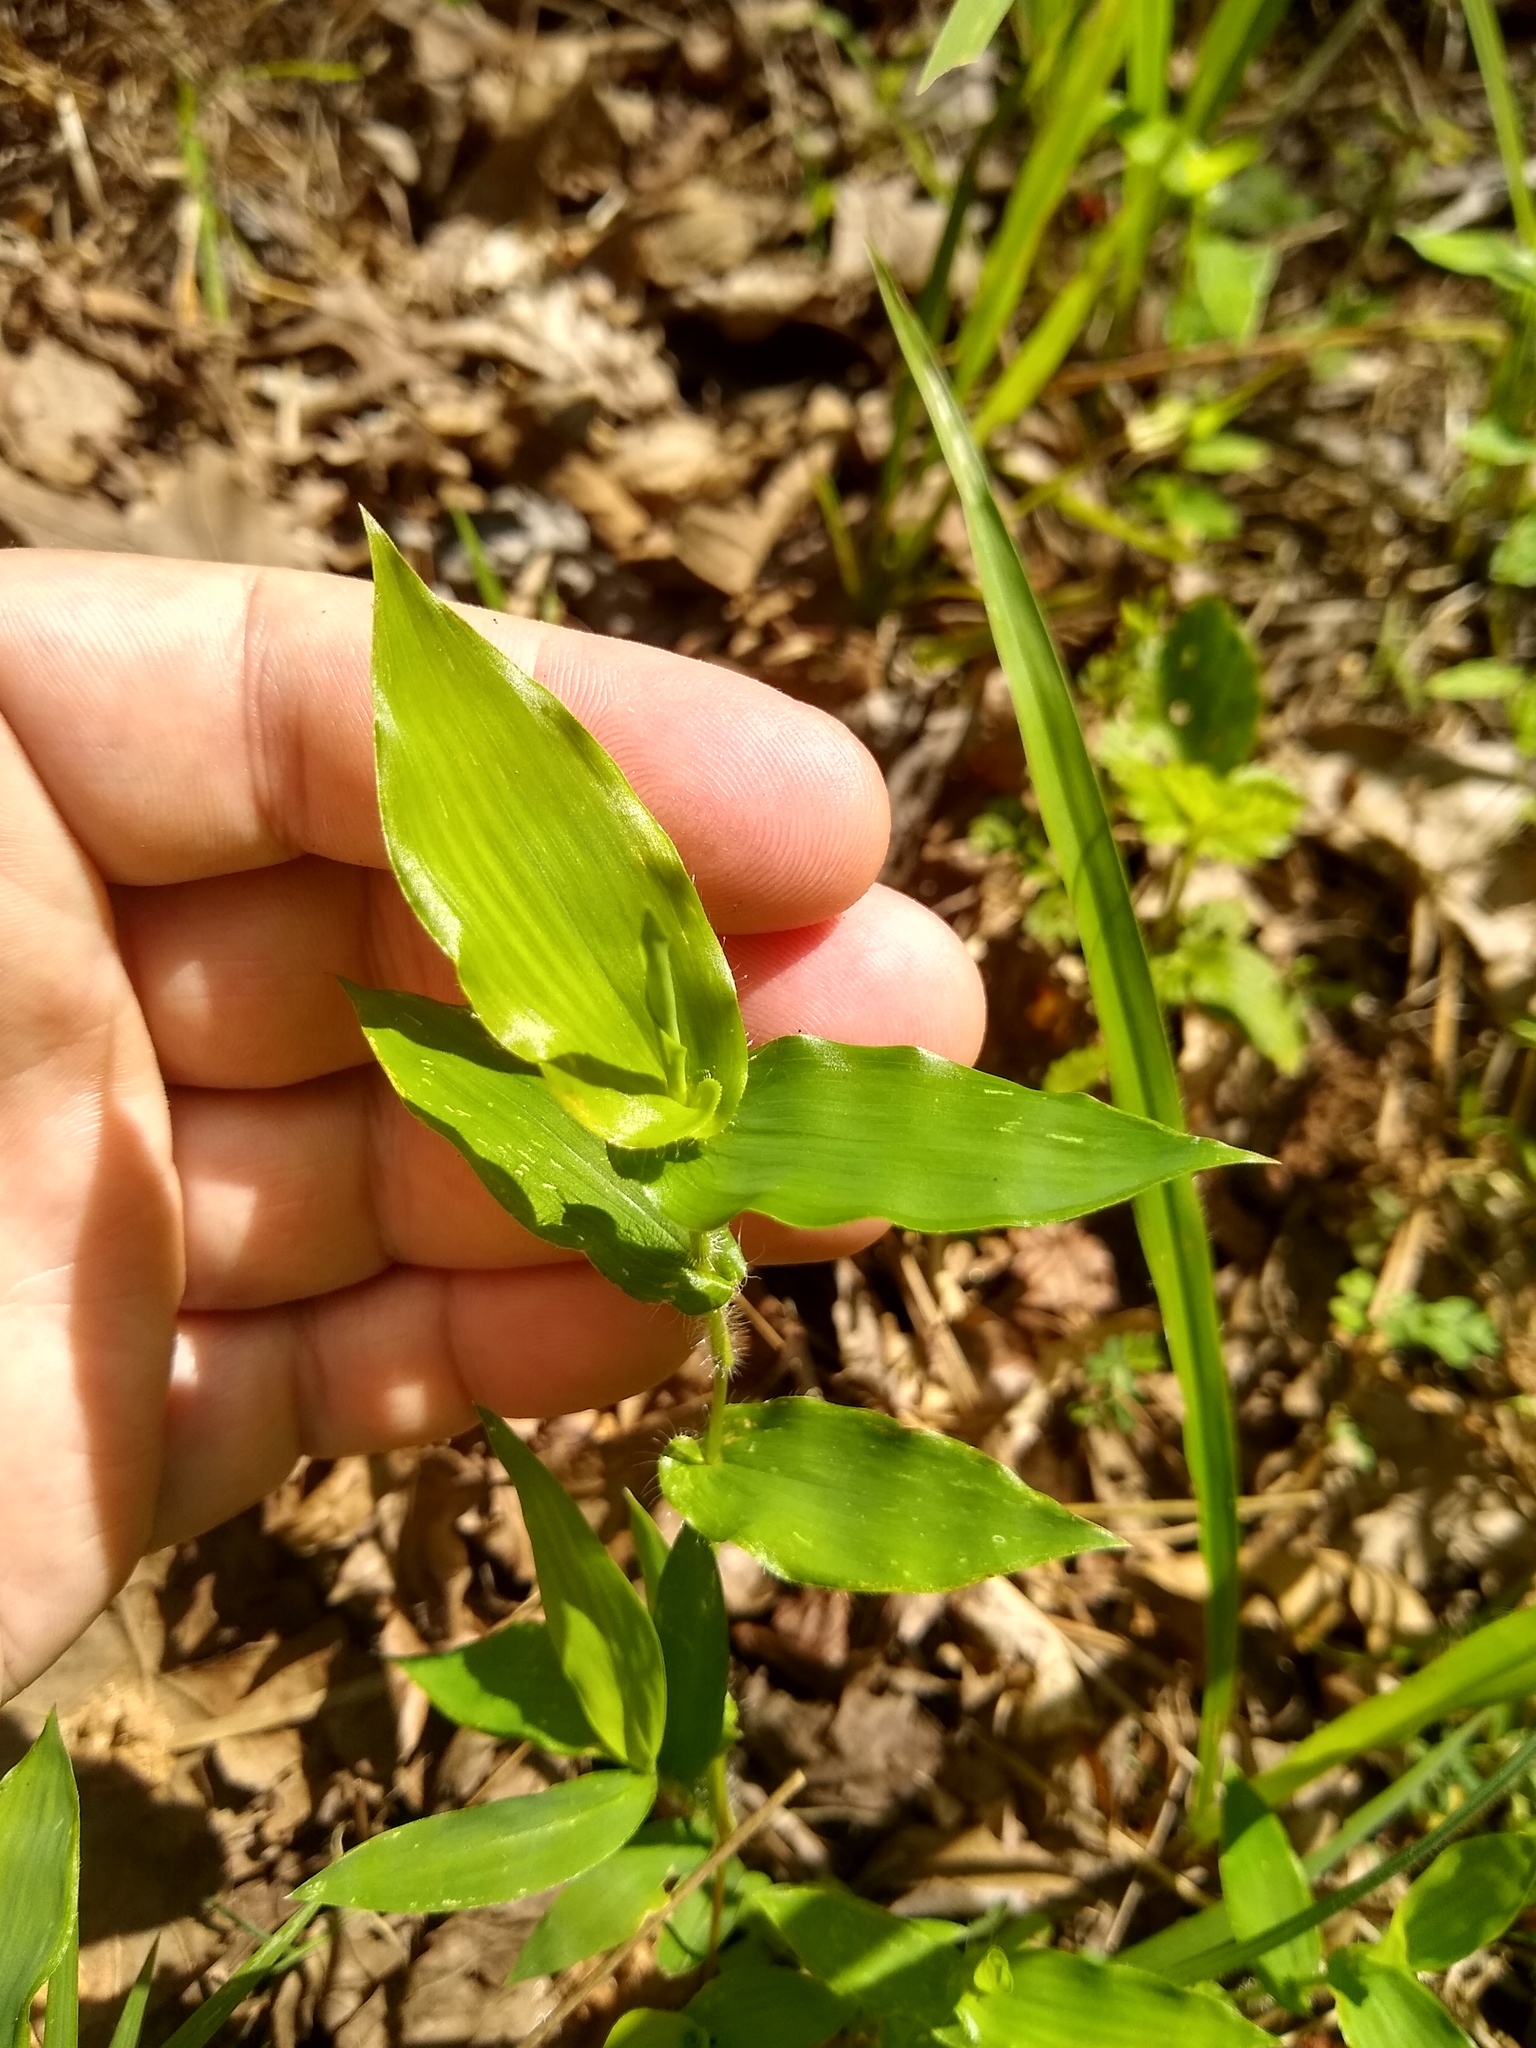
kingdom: Plantae
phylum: Tracheophyta
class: Liliopsida
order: Poales
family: Poaceae
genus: Arthraxon
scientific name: Arthraxon hispidus
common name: Small carpgrass
